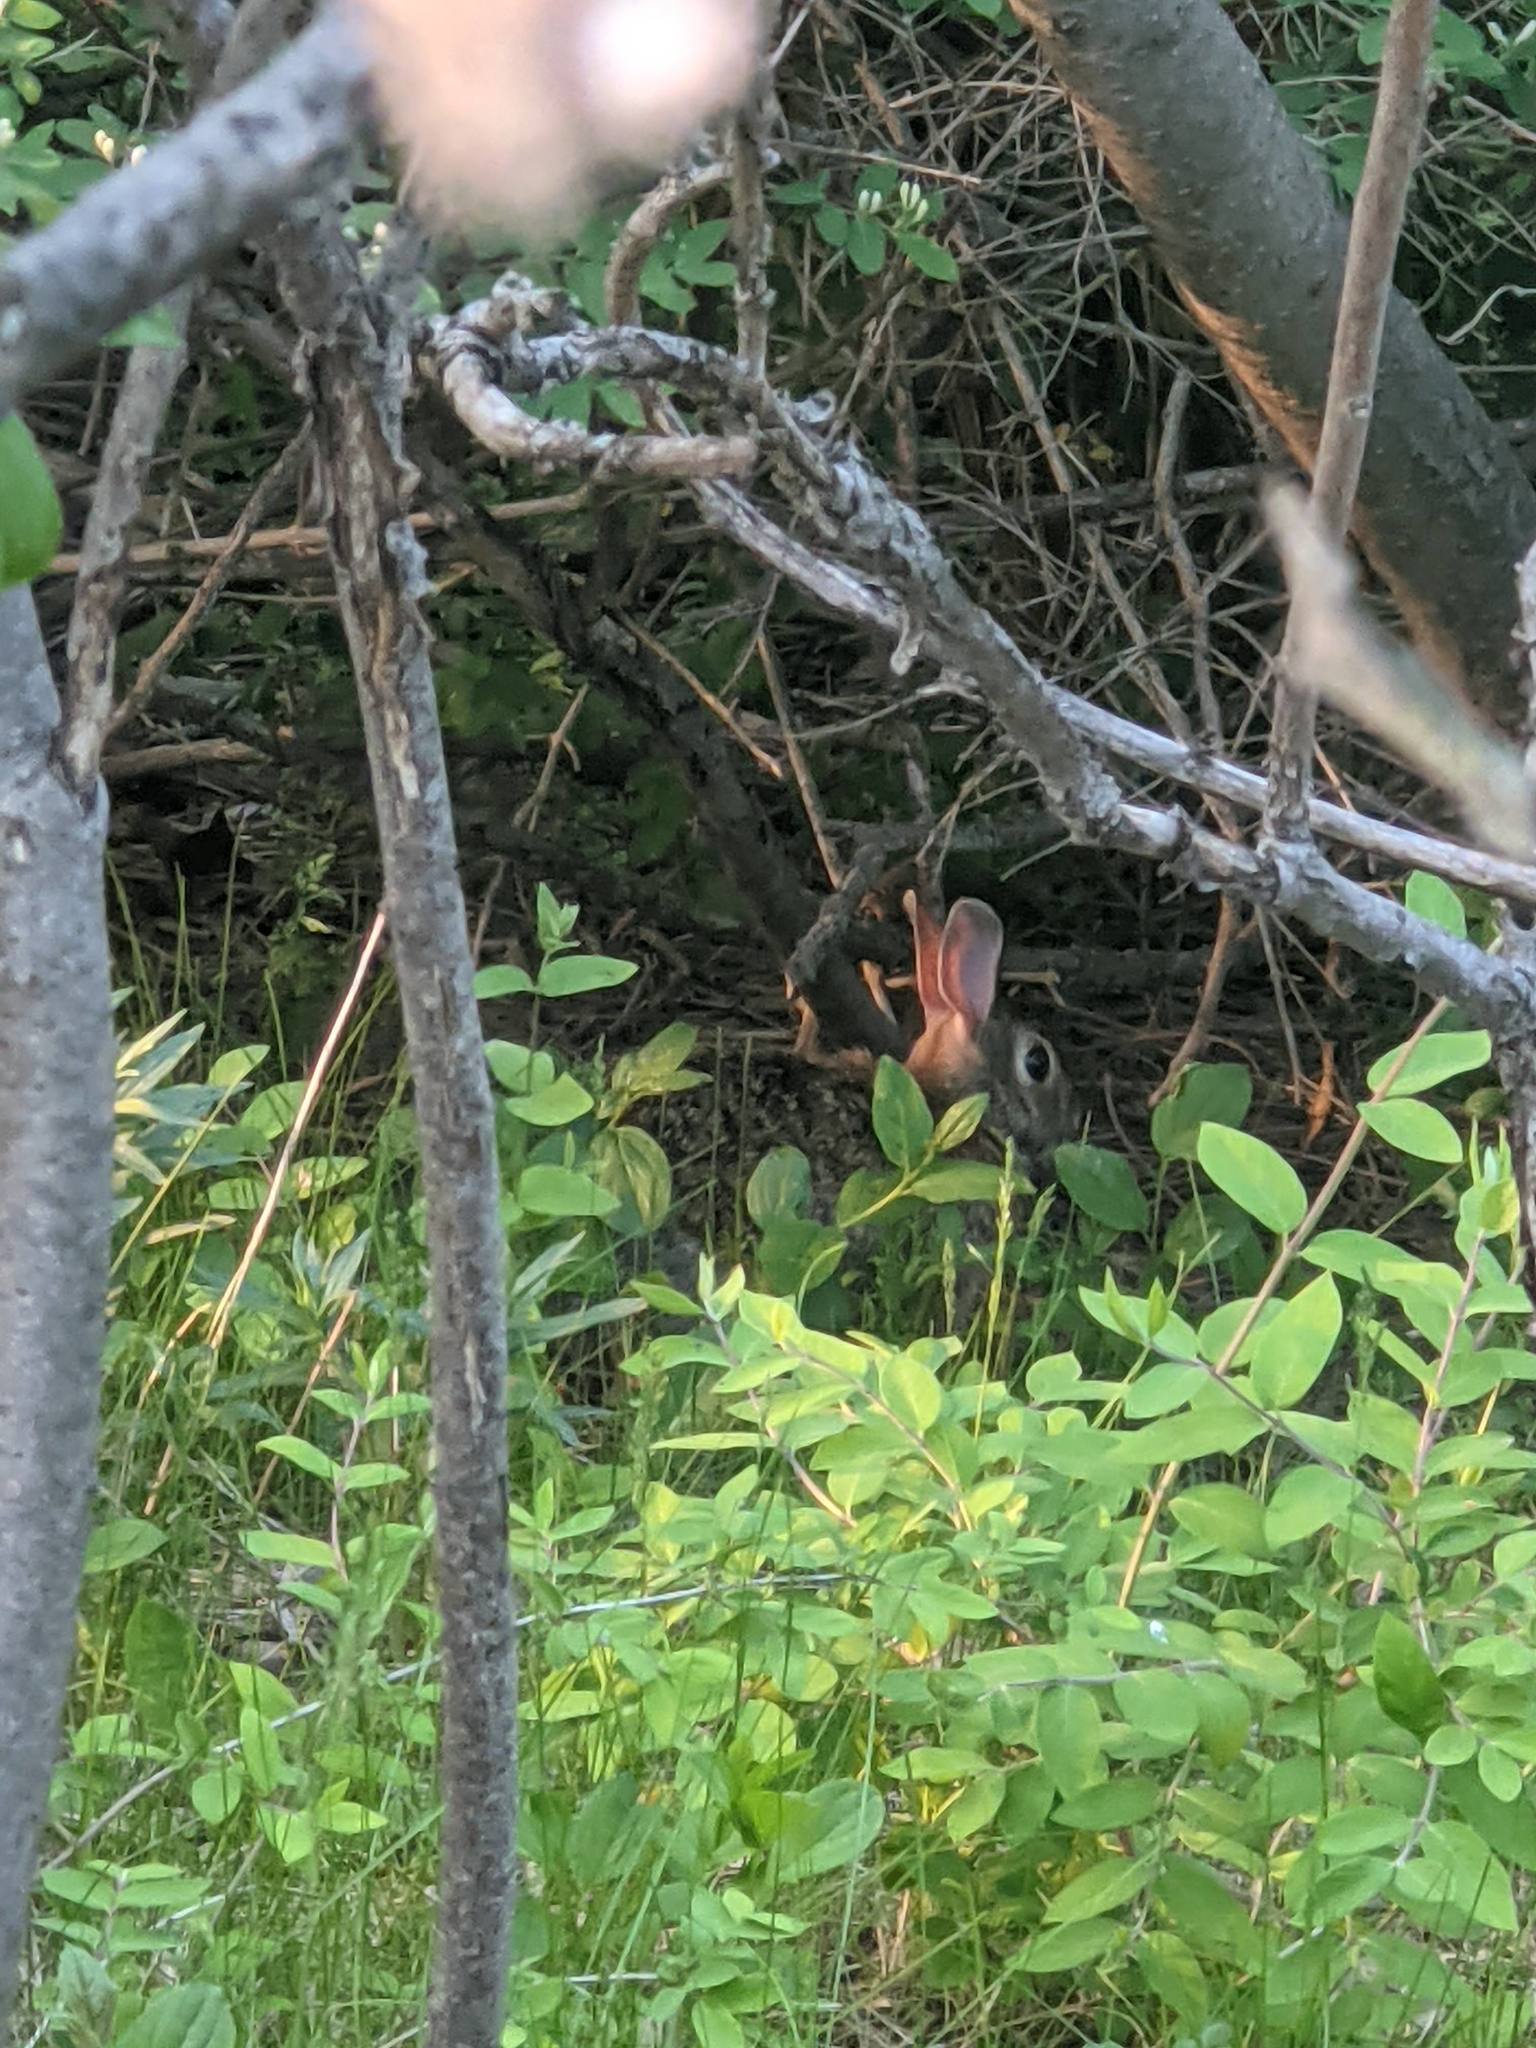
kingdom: Animalia
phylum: Chordata
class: Mammalia
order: Lagomorpha
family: Leporidae
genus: Sylvilagus
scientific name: Sylvilagus floridanus
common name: Eastern cottontail
